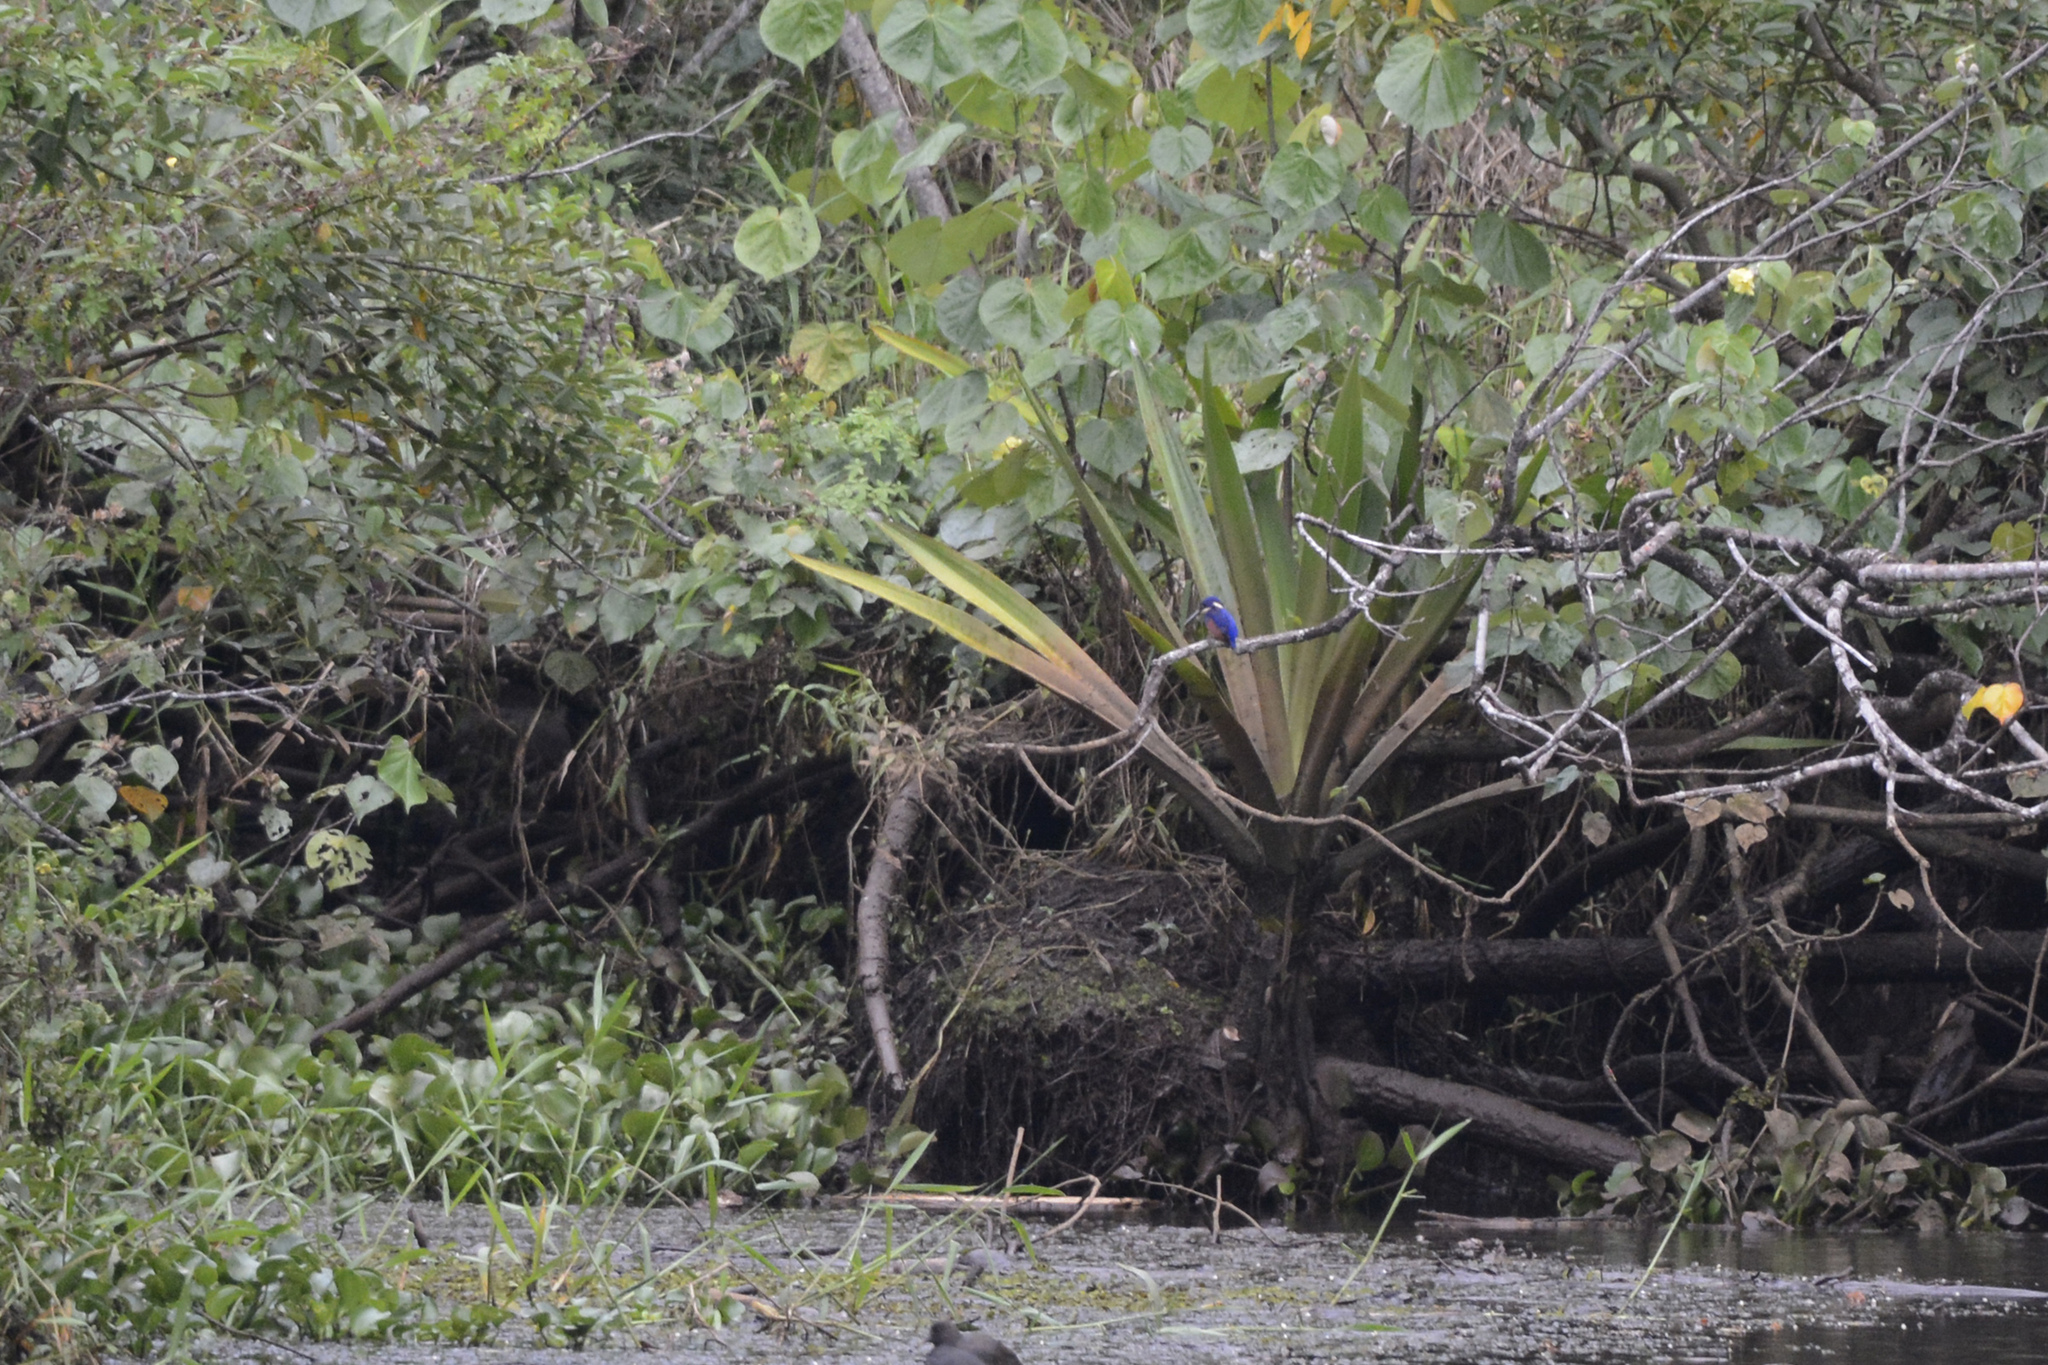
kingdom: Animalia
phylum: Chordata
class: Aves
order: Coraciiformes
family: Alcedinidae
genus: Ceyx
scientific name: Ceyx azureus
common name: Azure kingfisher
